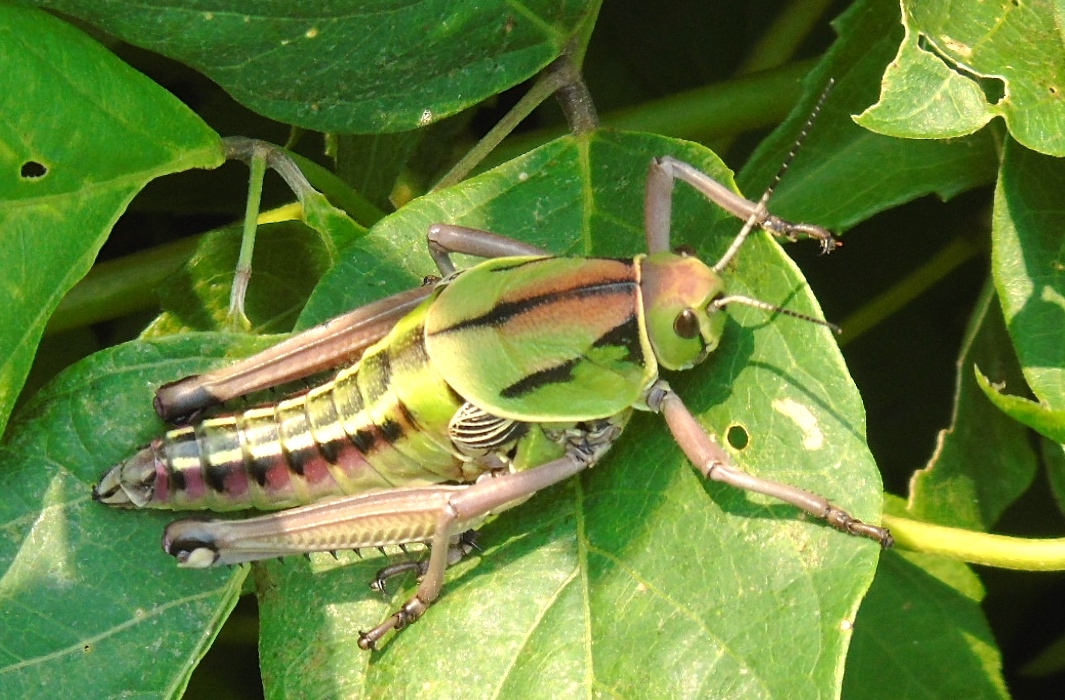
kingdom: Animalia
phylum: Arthropoda
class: Insecta
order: Orthoptera
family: Romaleidae
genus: Brachystola
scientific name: Brachystola behrensii
